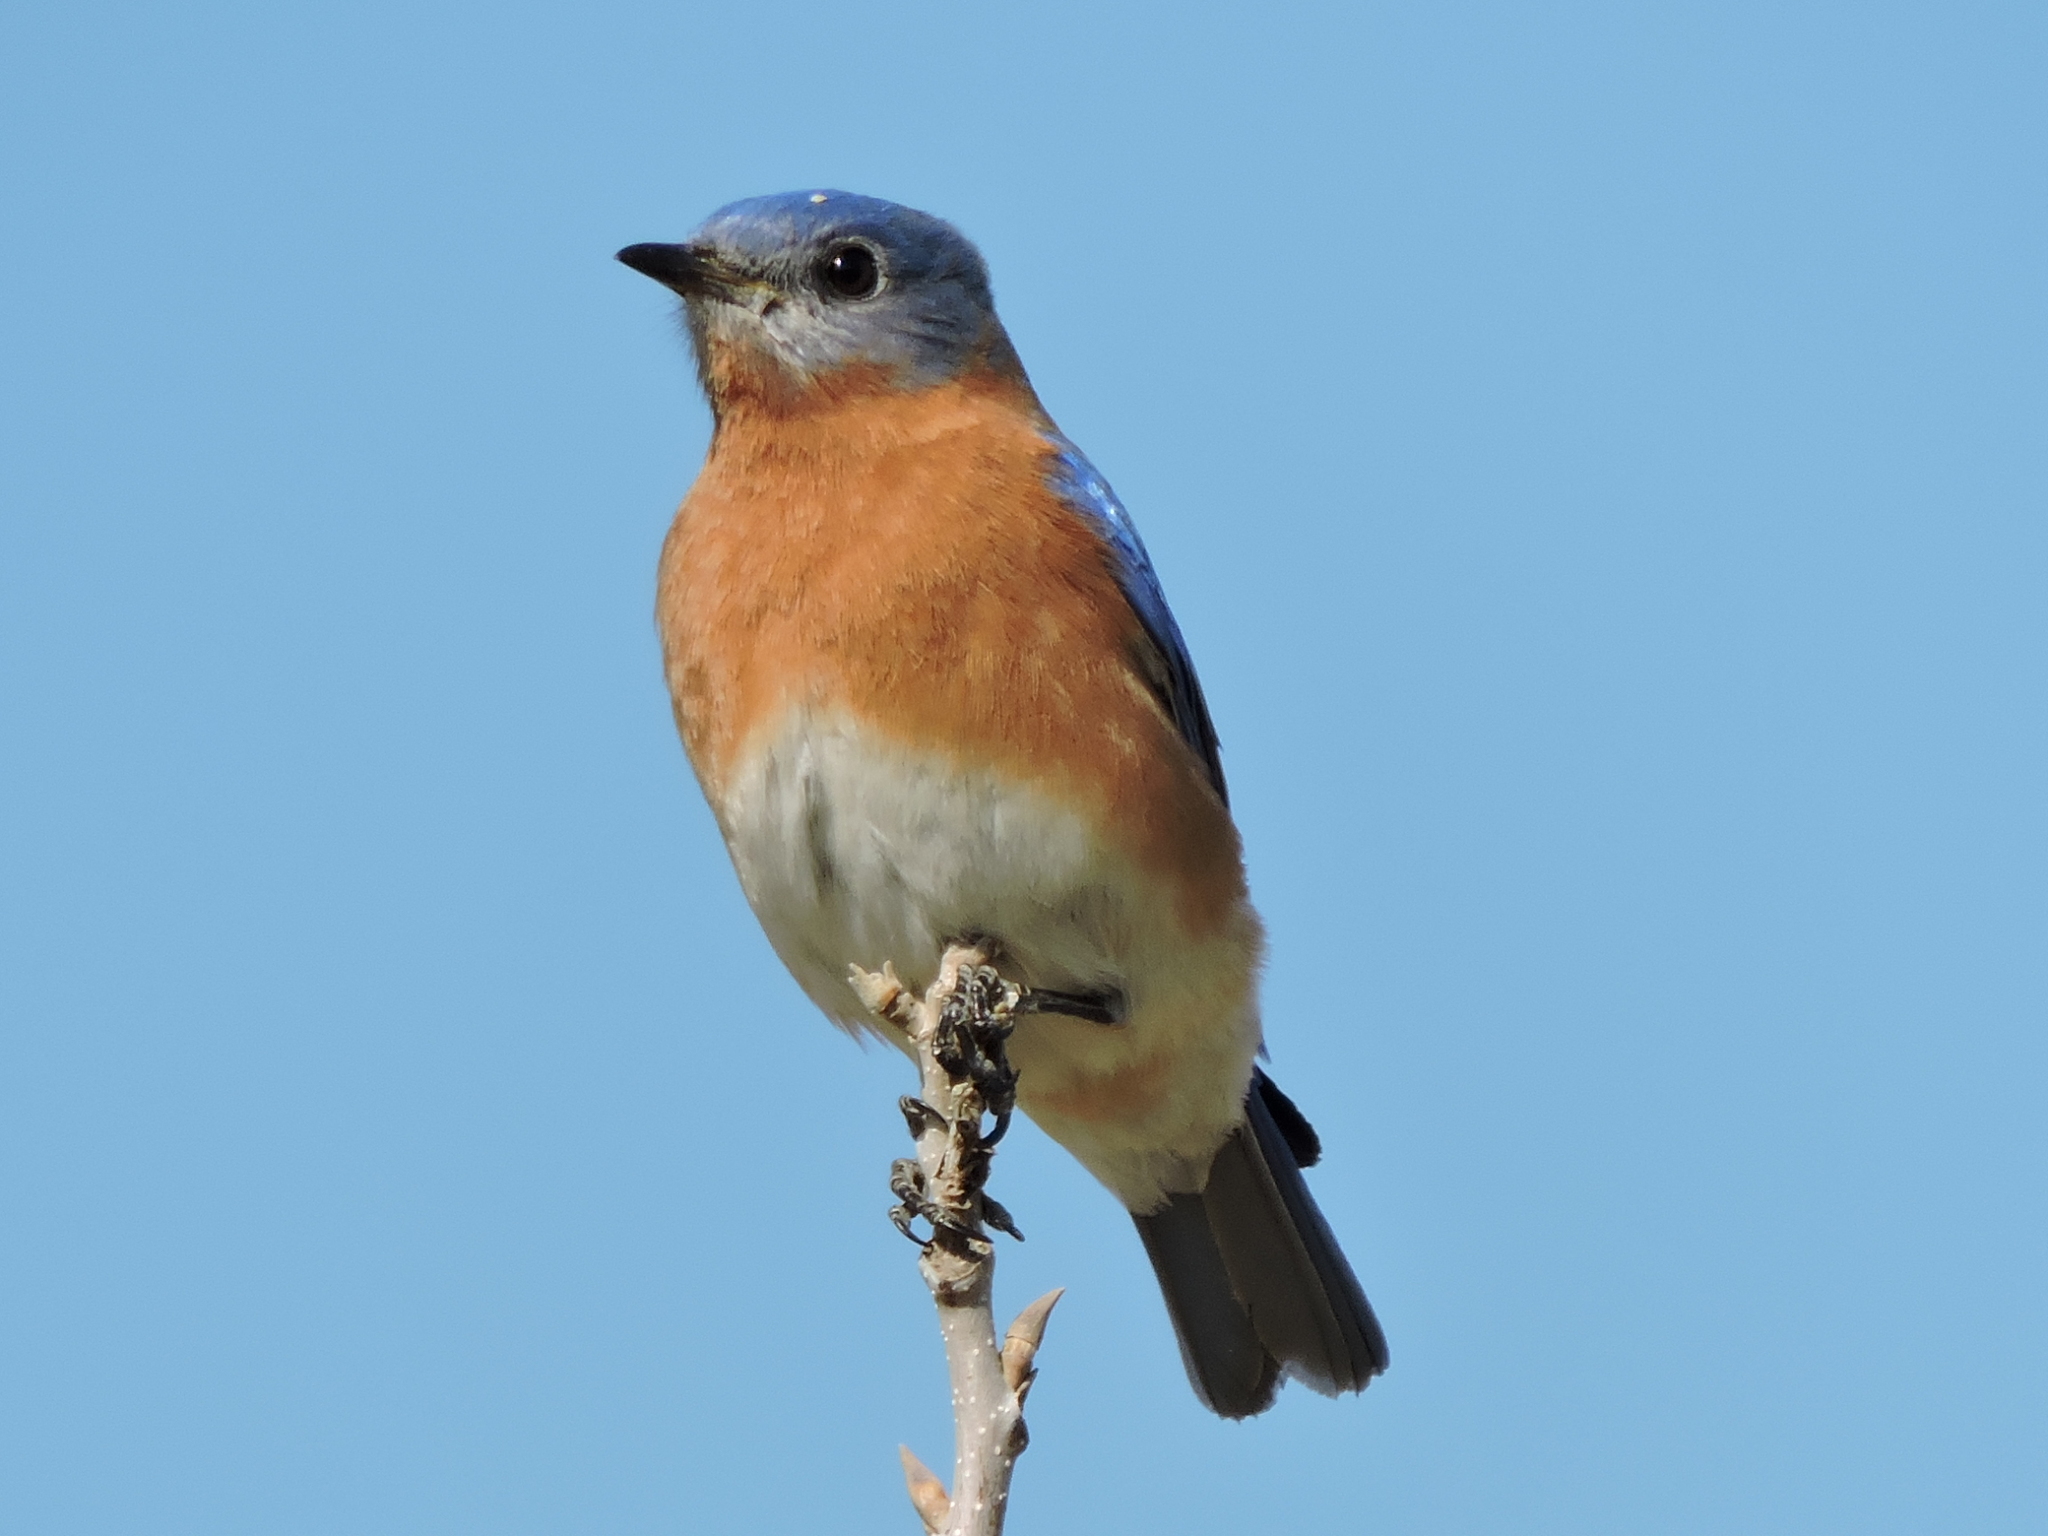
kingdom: Animalia
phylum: Chordata
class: Aves
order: Passeriformes
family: Turdidae
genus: Sialia
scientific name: Sialia sialis
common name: Eastern bluebird
